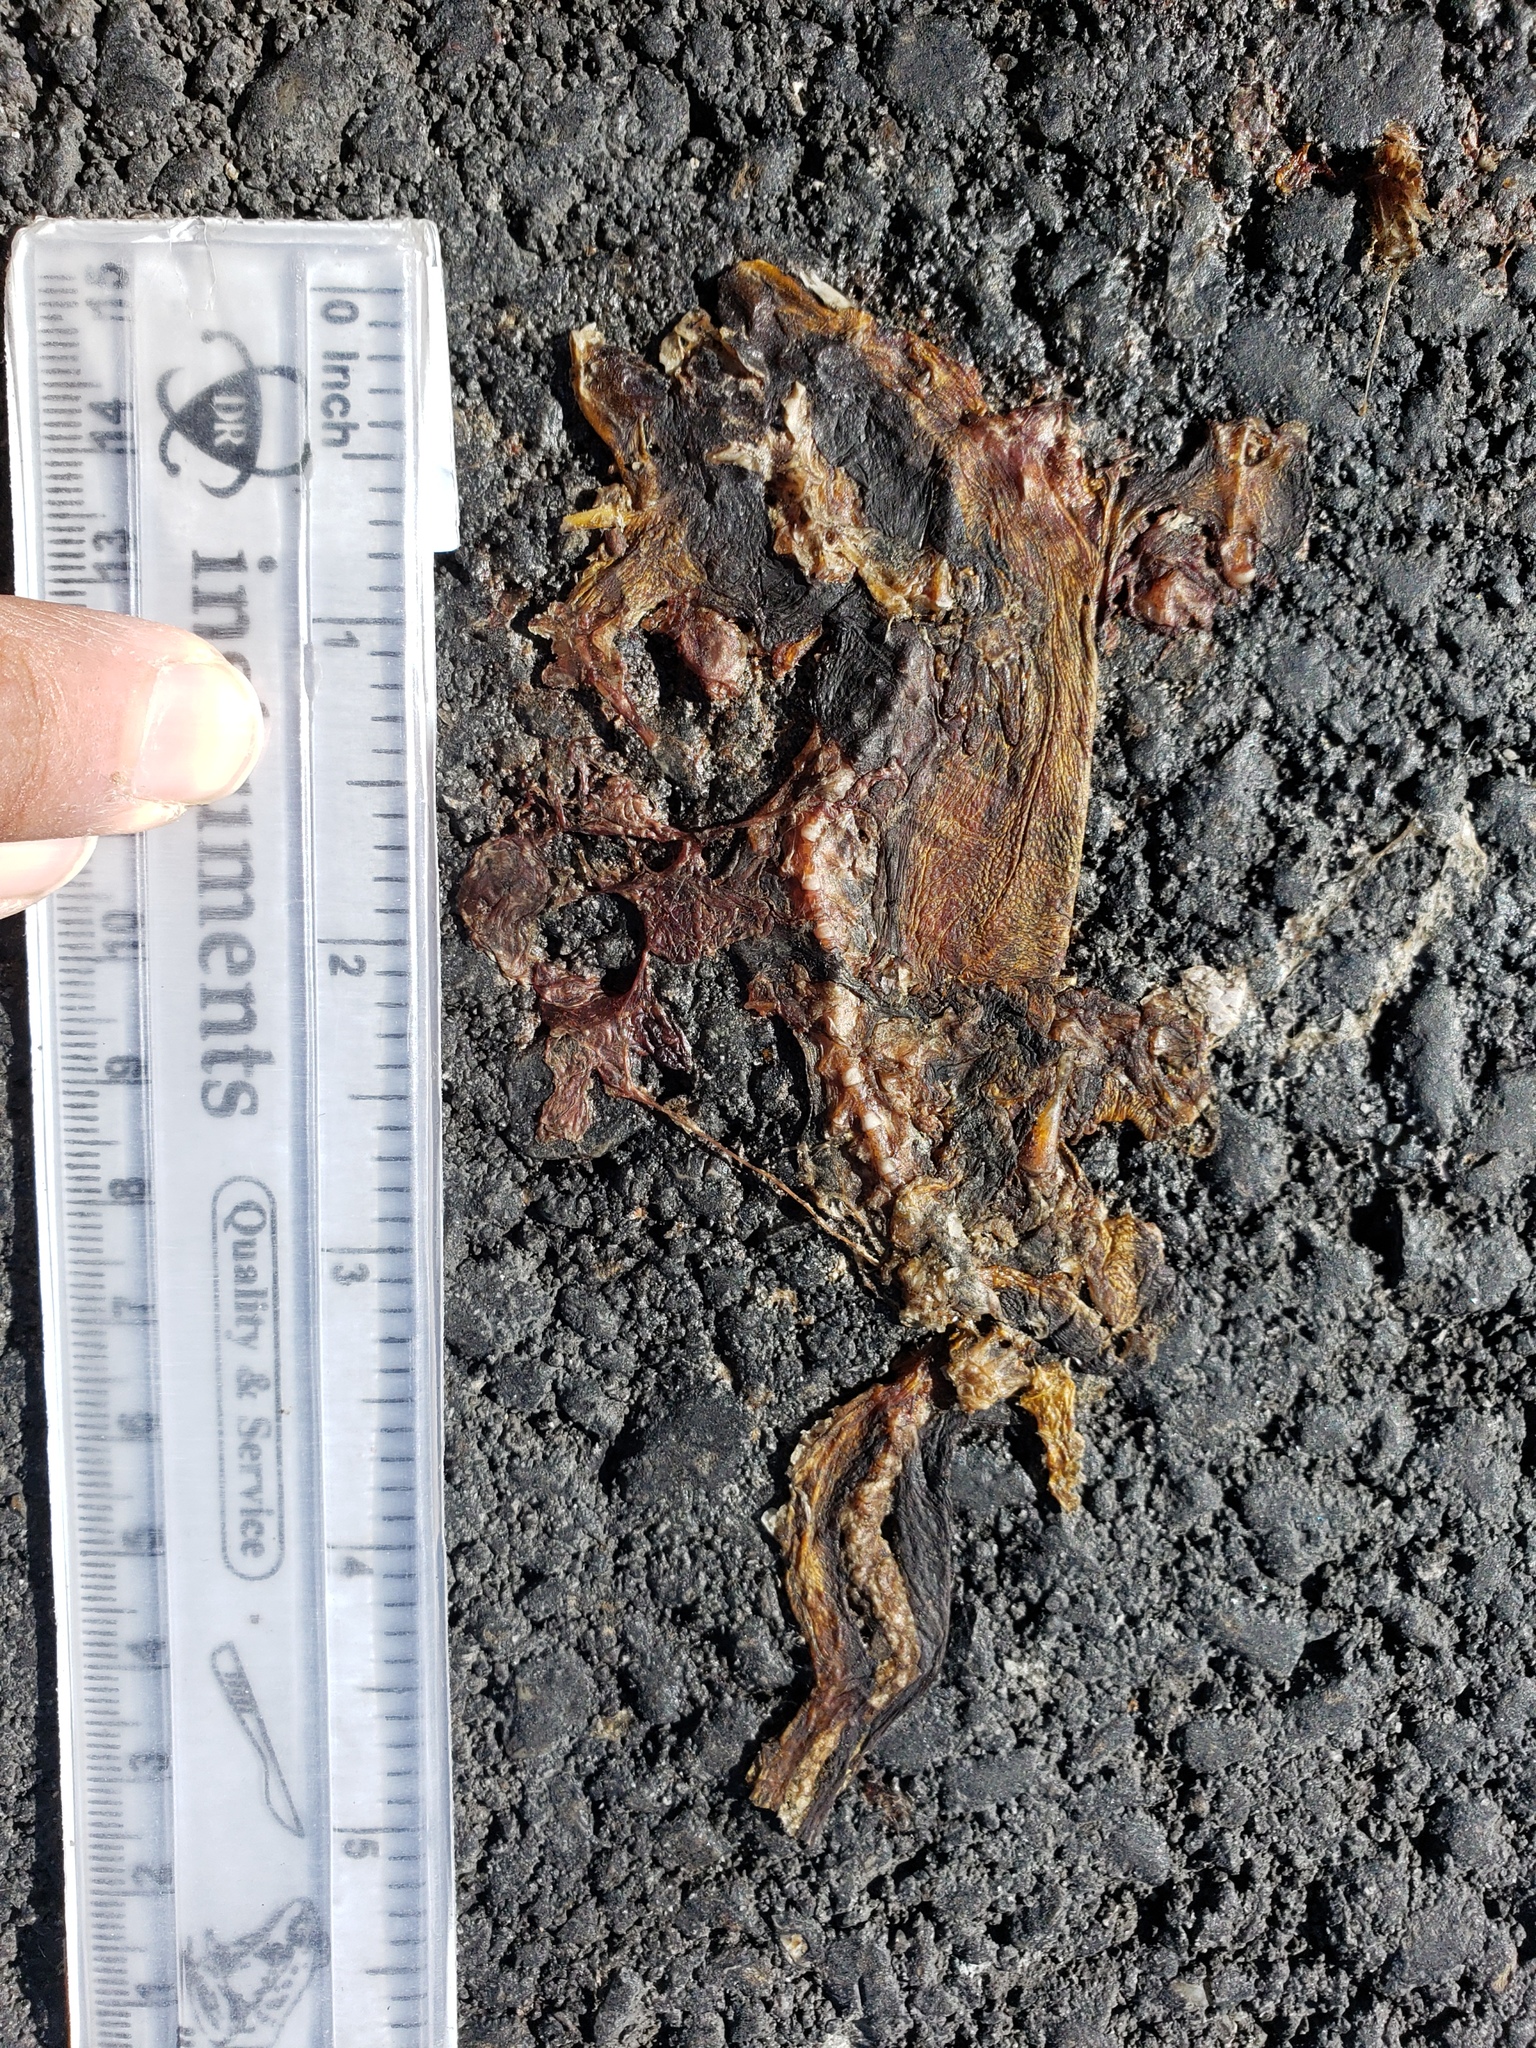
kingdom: Animalia
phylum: Chordata
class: Amphibia
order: Caudata
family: Salamandridae
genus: Taricha
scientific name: Taricha
